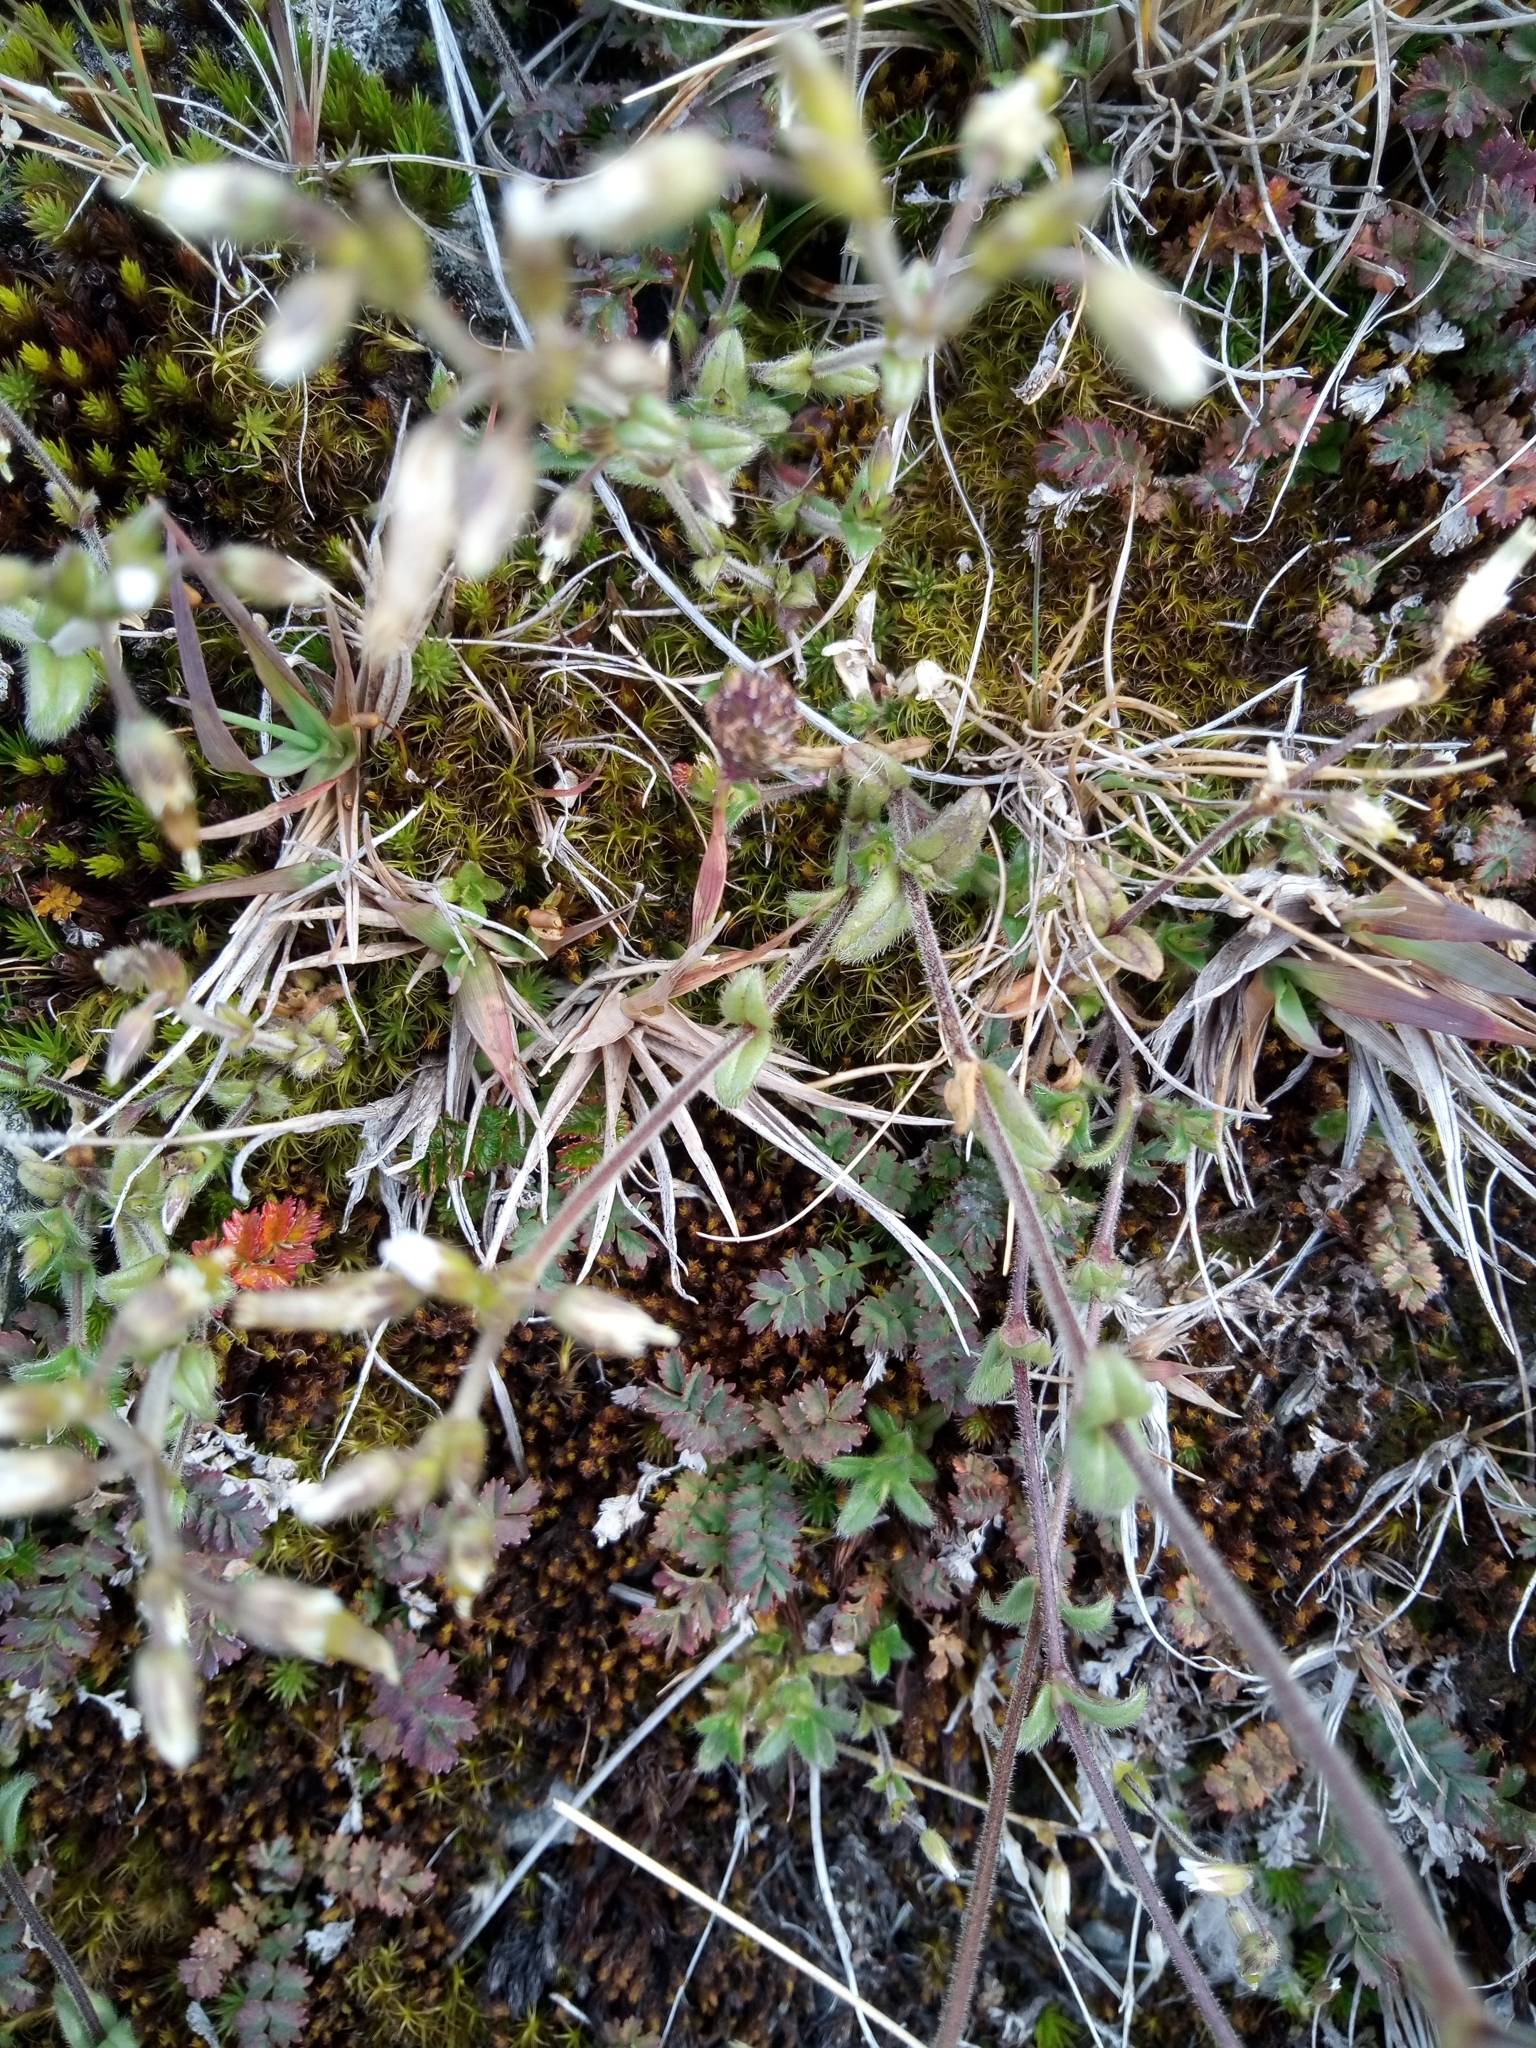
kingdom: Plantae
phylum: Tracheophyta
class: Magnoliopsida
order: Caryophyllales
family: Caryophyllaceae
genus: Cerastium
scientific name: Cerastium fontanum
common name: Common mouse-ear
